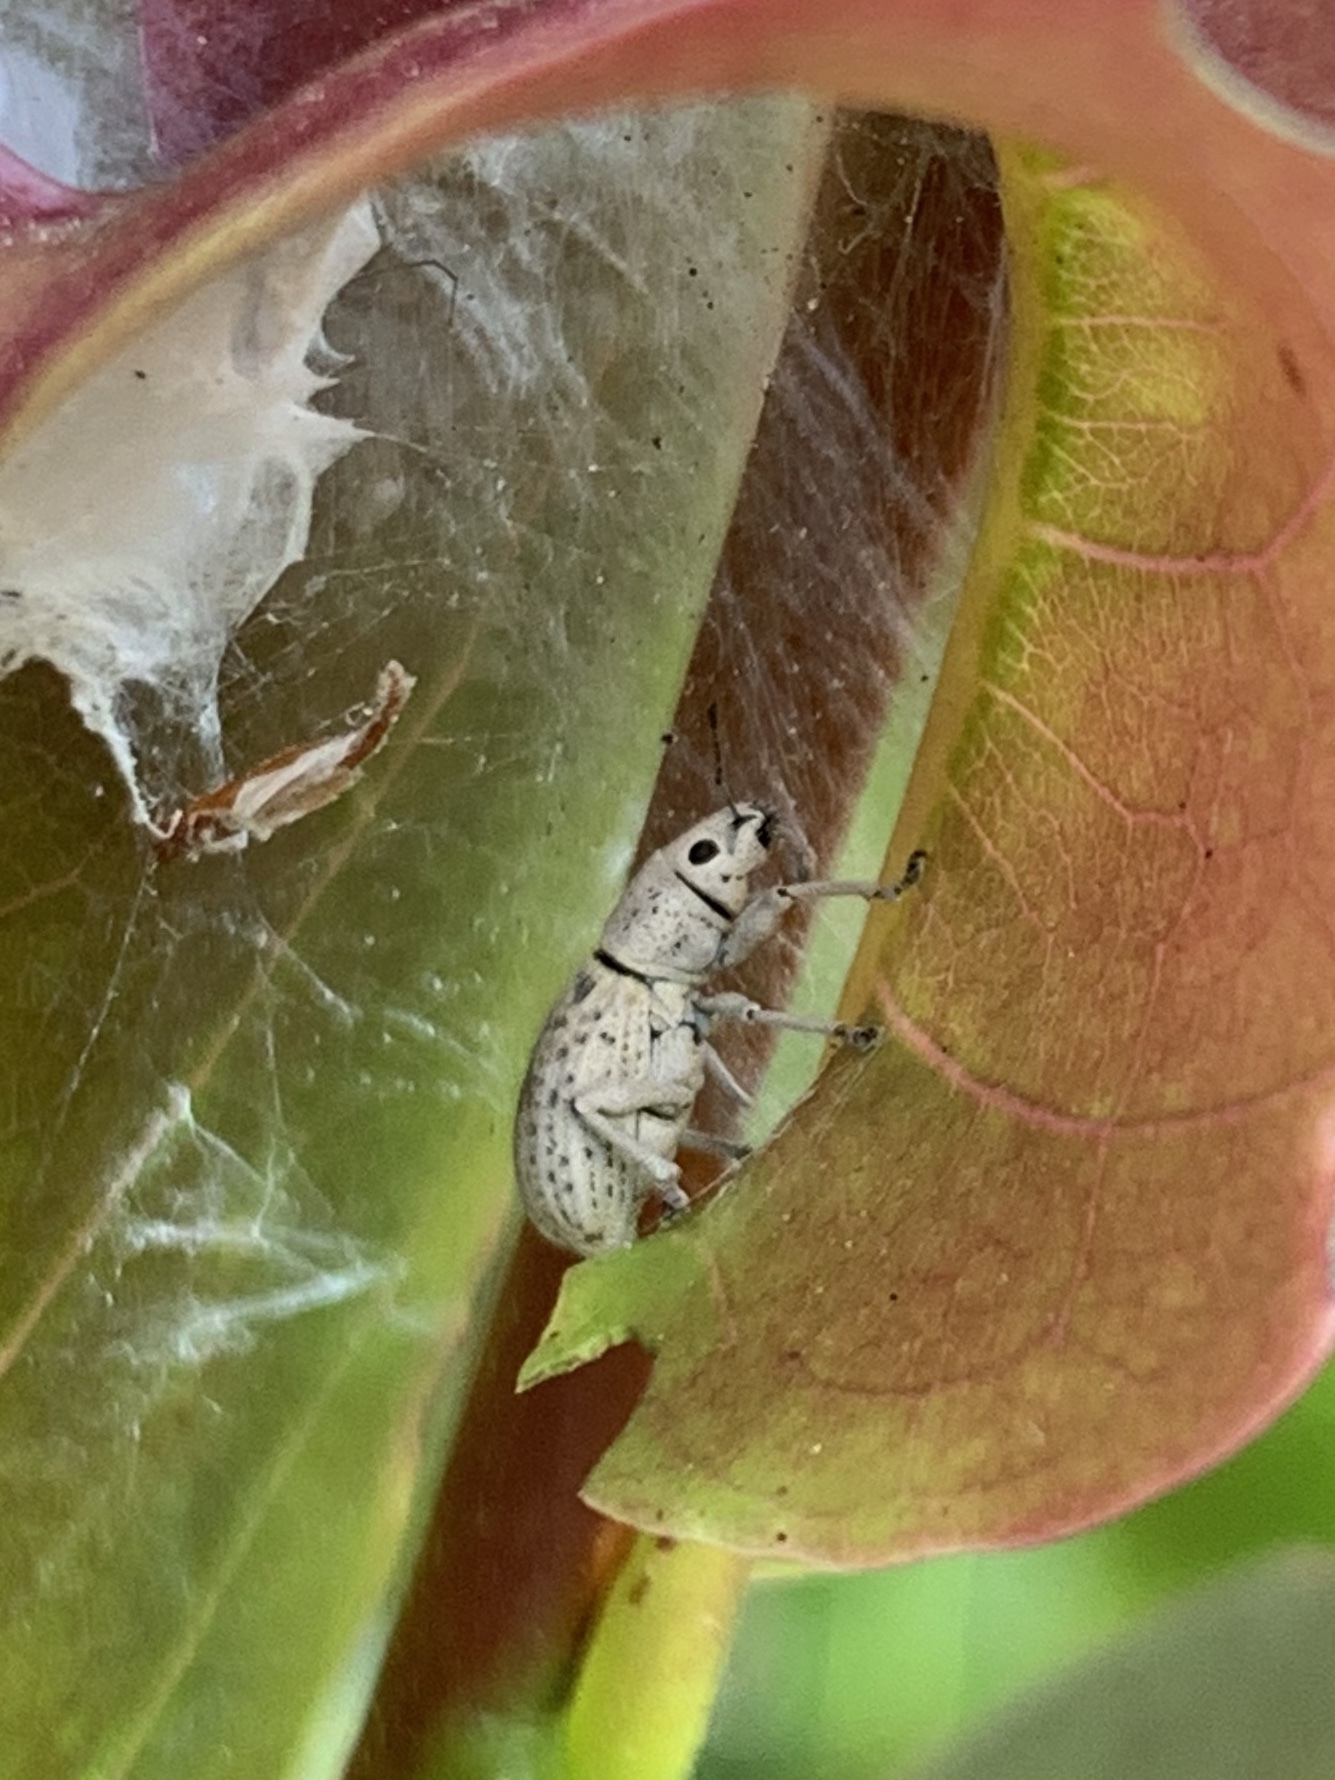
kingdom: Animalia
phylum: Arthropoda
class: Insecta
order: Coleoptera
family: Curculionidae
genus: Artipus
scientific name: Artipus floridanus
